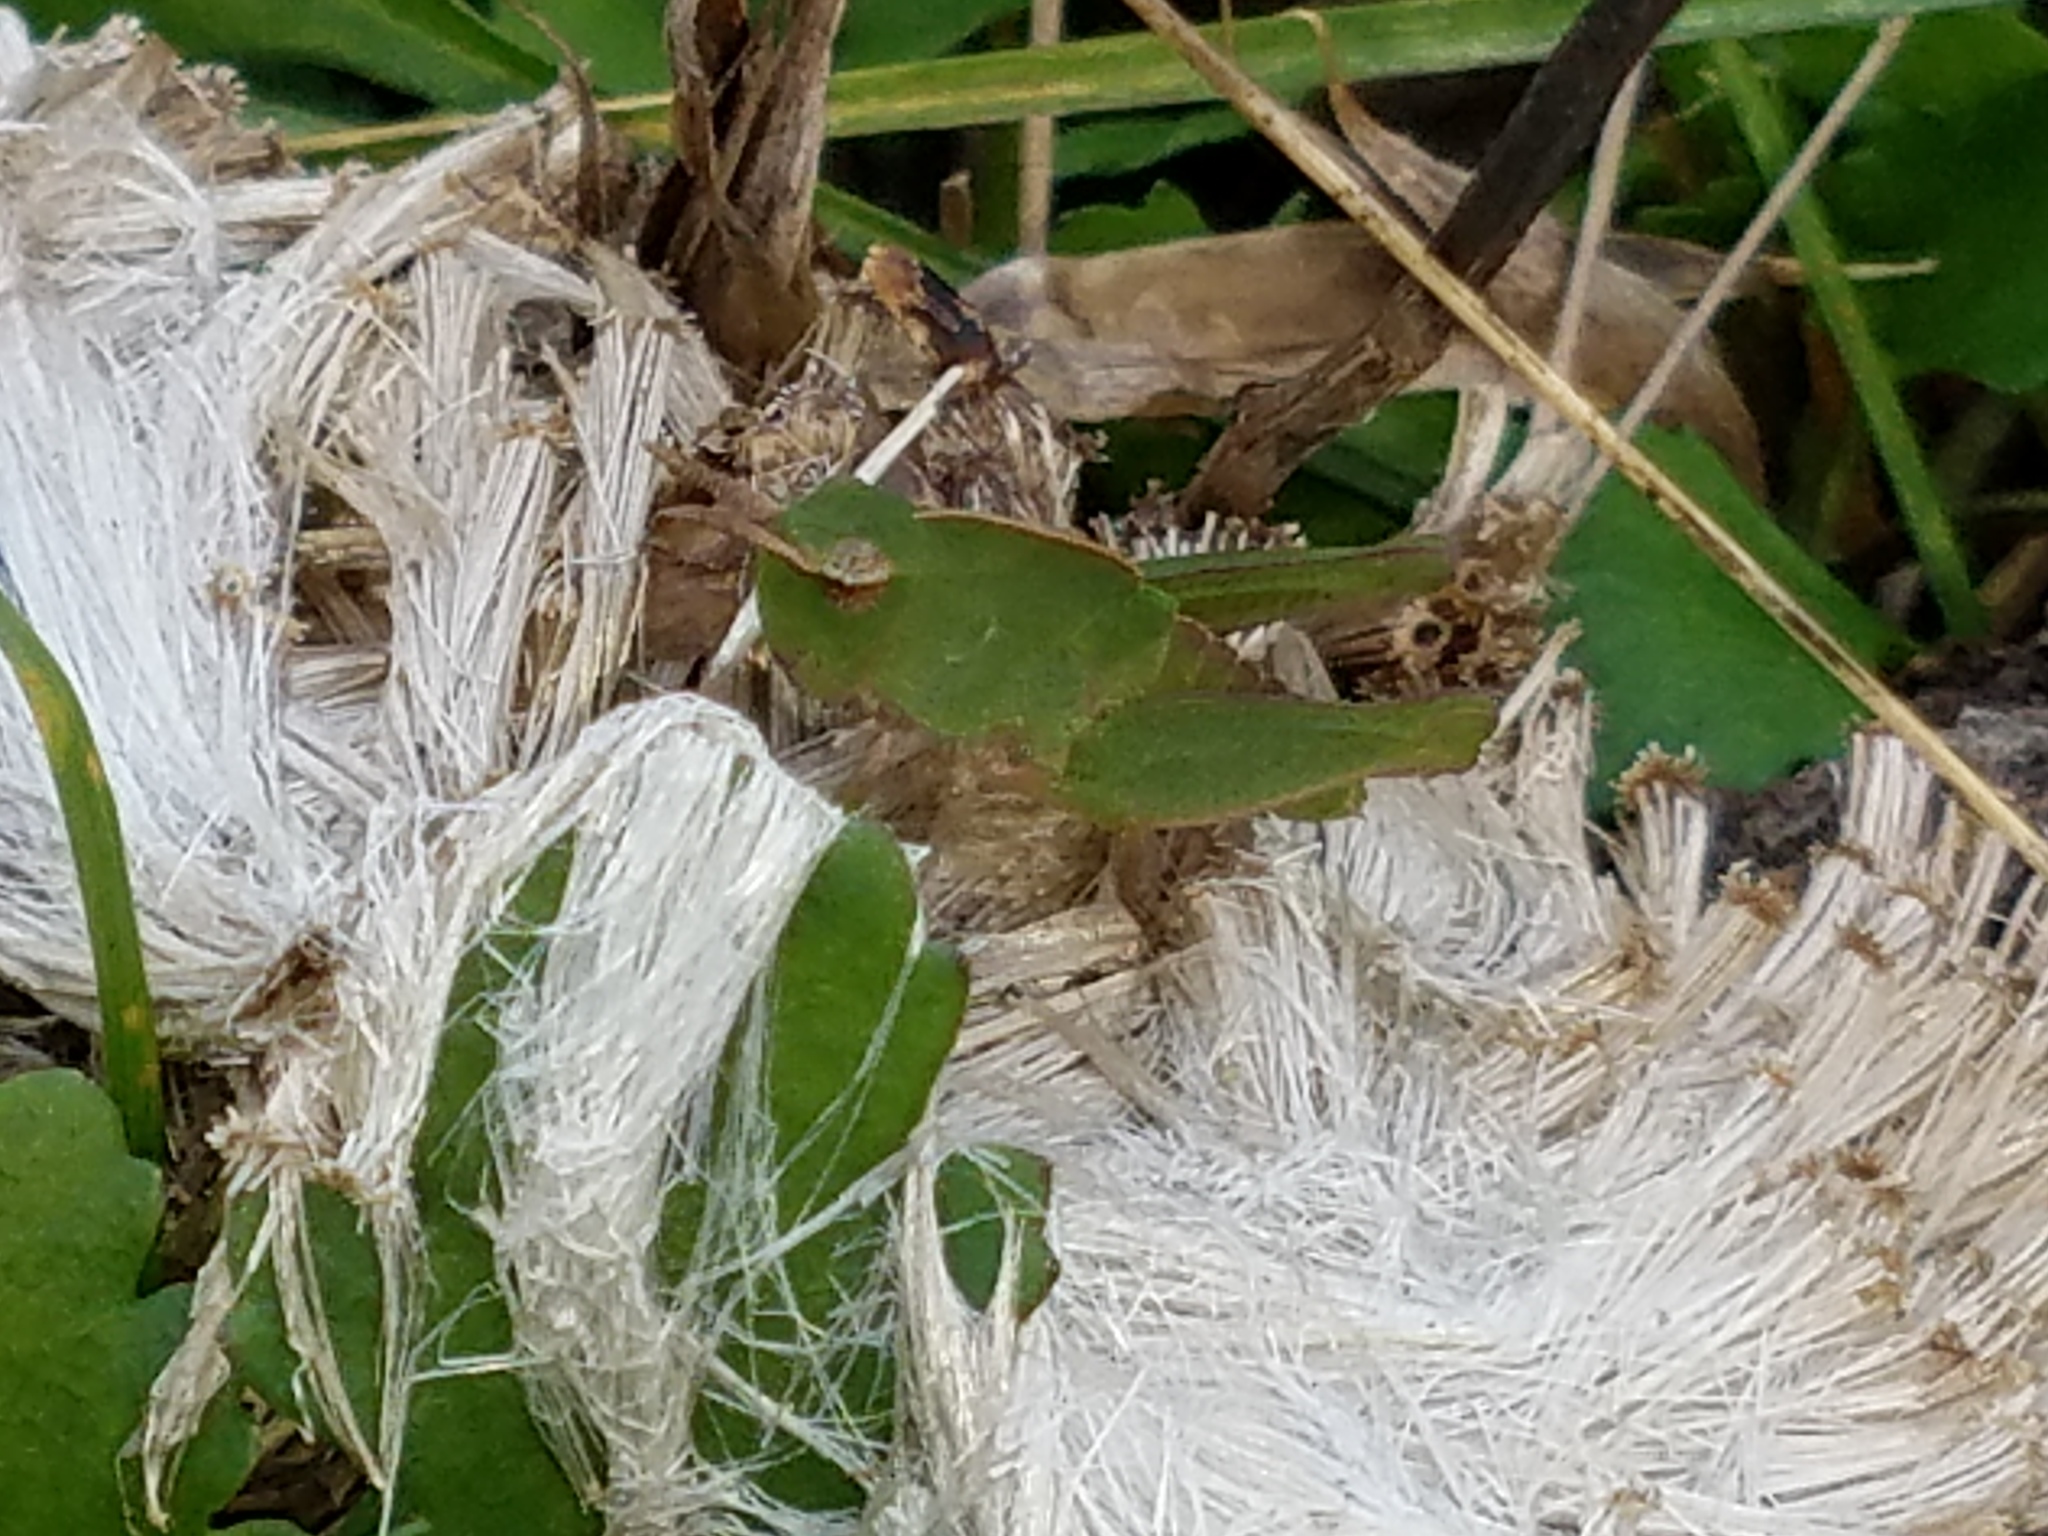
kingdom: Animalia
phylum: Arthropoda
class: Insecta
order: Orthoptera
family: Acrididae
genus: Chortophaga
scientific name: Chortophaga viridifasciata
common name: Green-striped grasshopper
